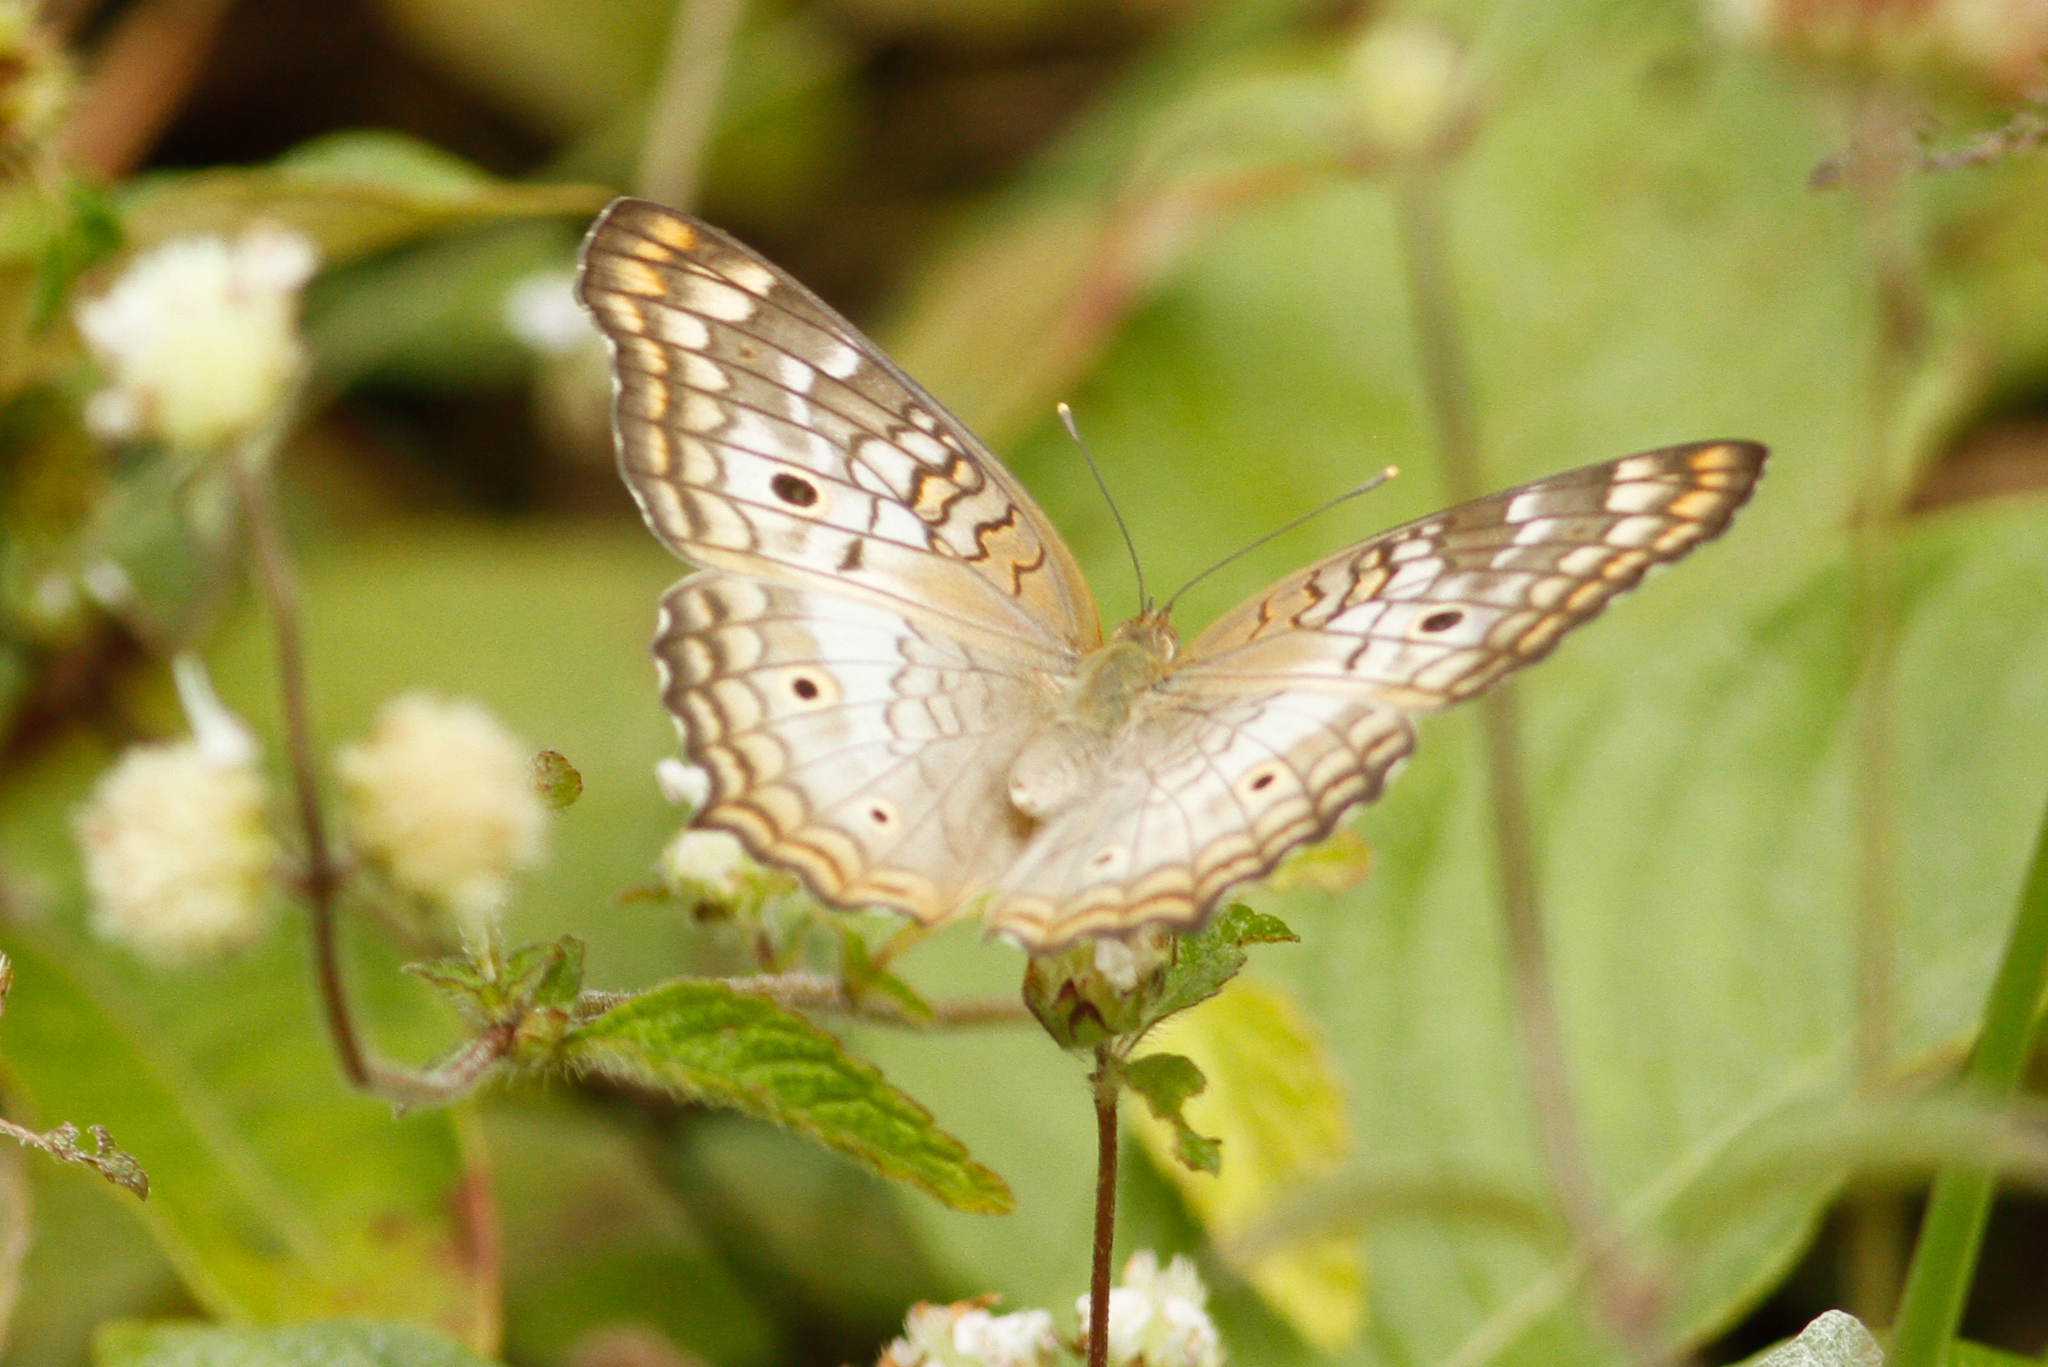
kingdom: Animalia
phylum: Arthropoda
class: Insecta
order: Lepidoptera
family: Nymphalidae
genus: Anartia
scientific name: Anartia jatrophae
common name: White peacock
